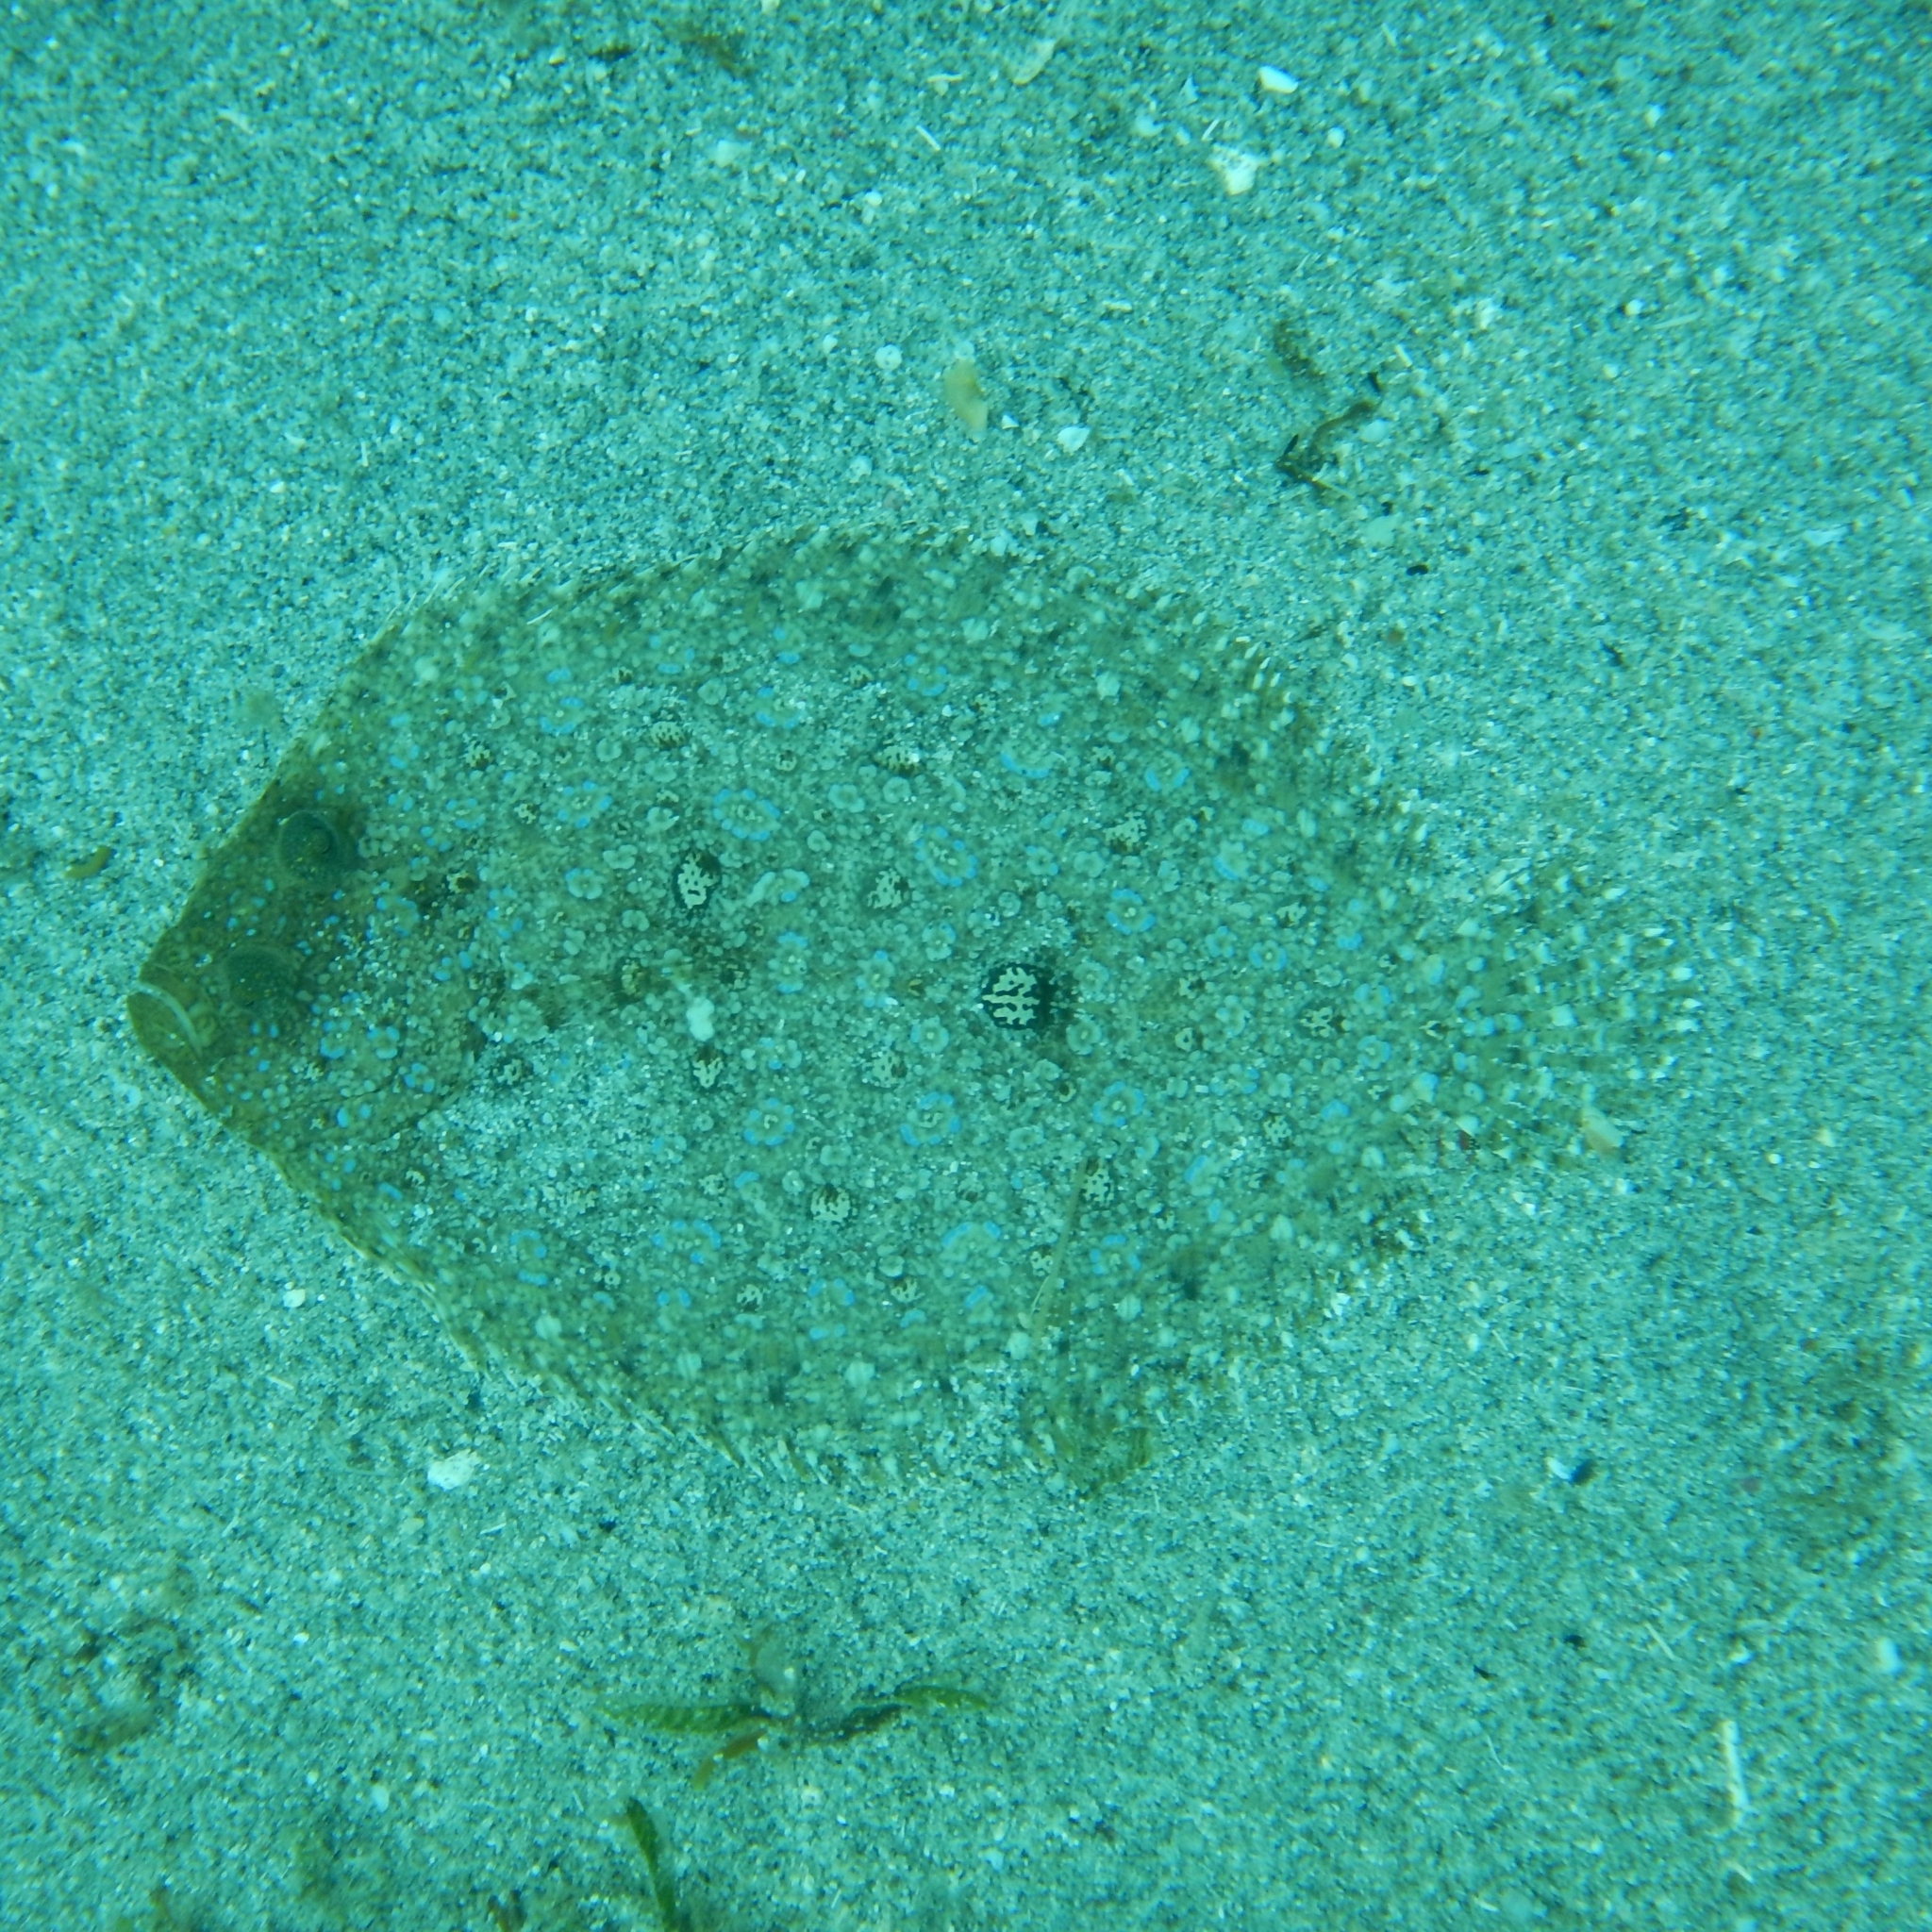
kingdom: Animalia
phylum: Chordata
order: Pleuronectiformes
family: Bothidae
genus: Bothus
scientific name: Bothus maculiferus
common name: Mottled flounder
